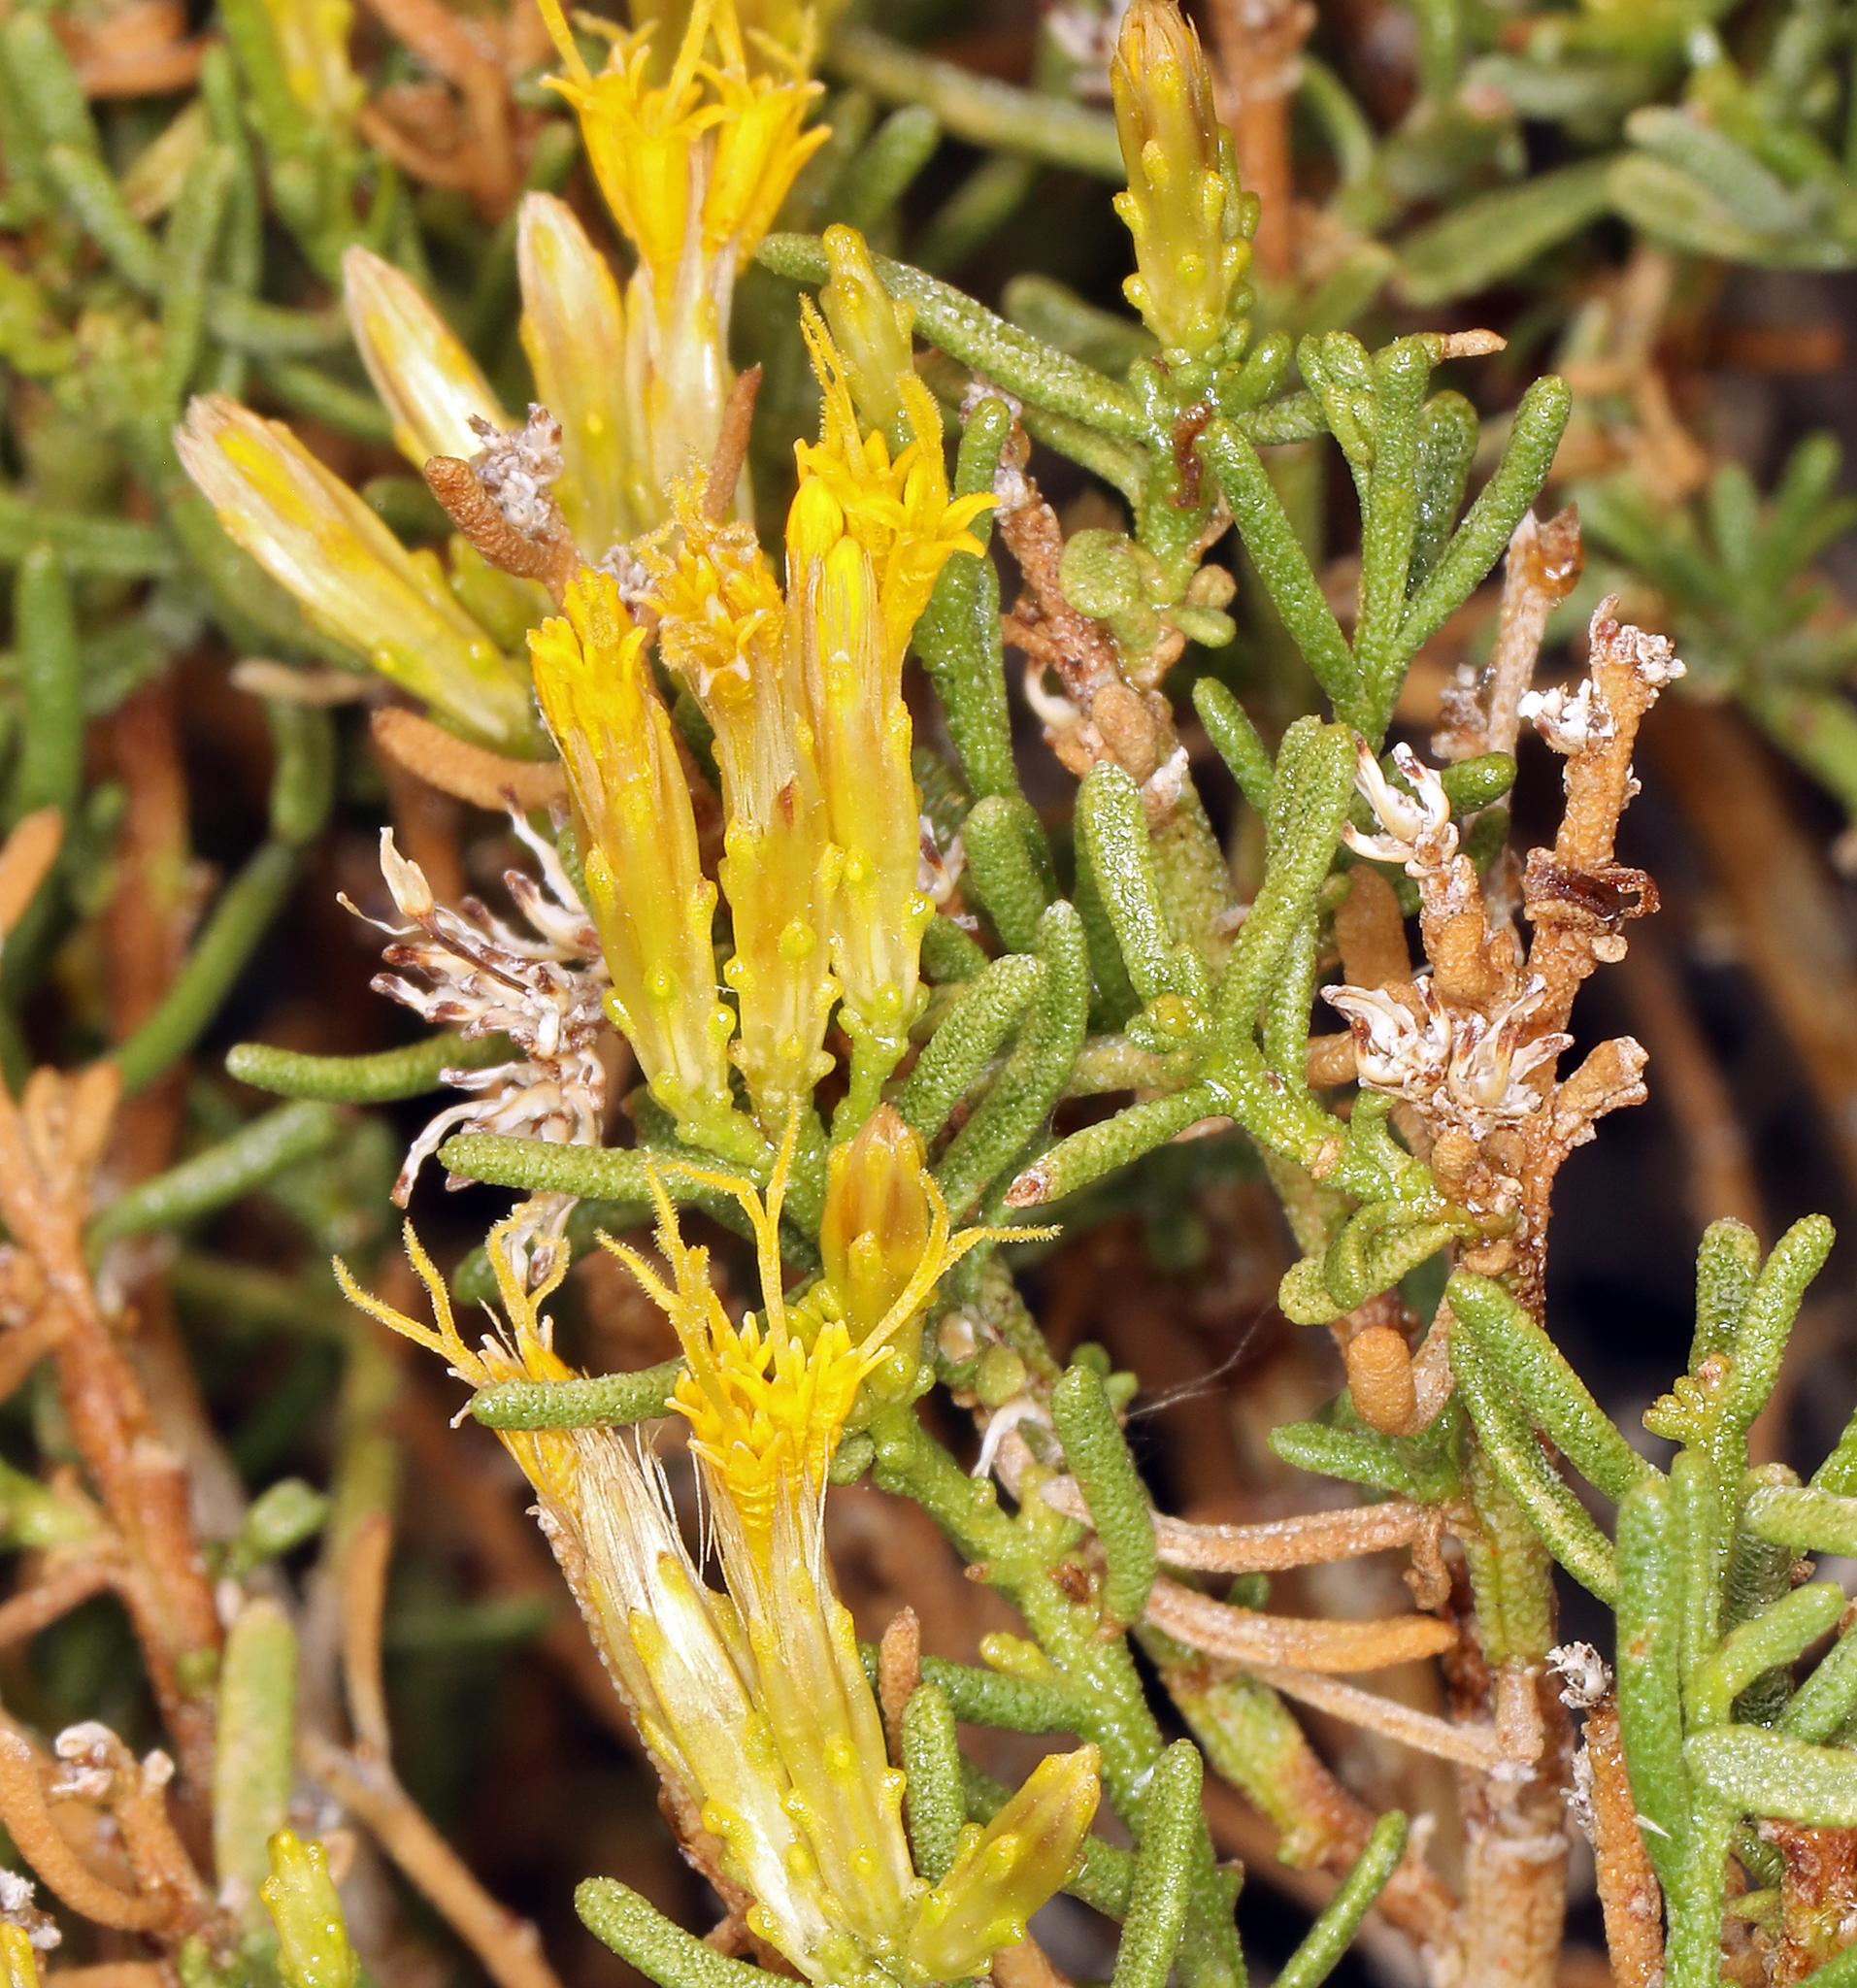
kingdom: Plantae
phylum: Tracheophyta
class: Magnoliopsida
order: Asterales
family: Asteraceae
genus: Ericameria
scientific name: Ericameria teretifolia
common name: Round-leaf rabbitbrush
